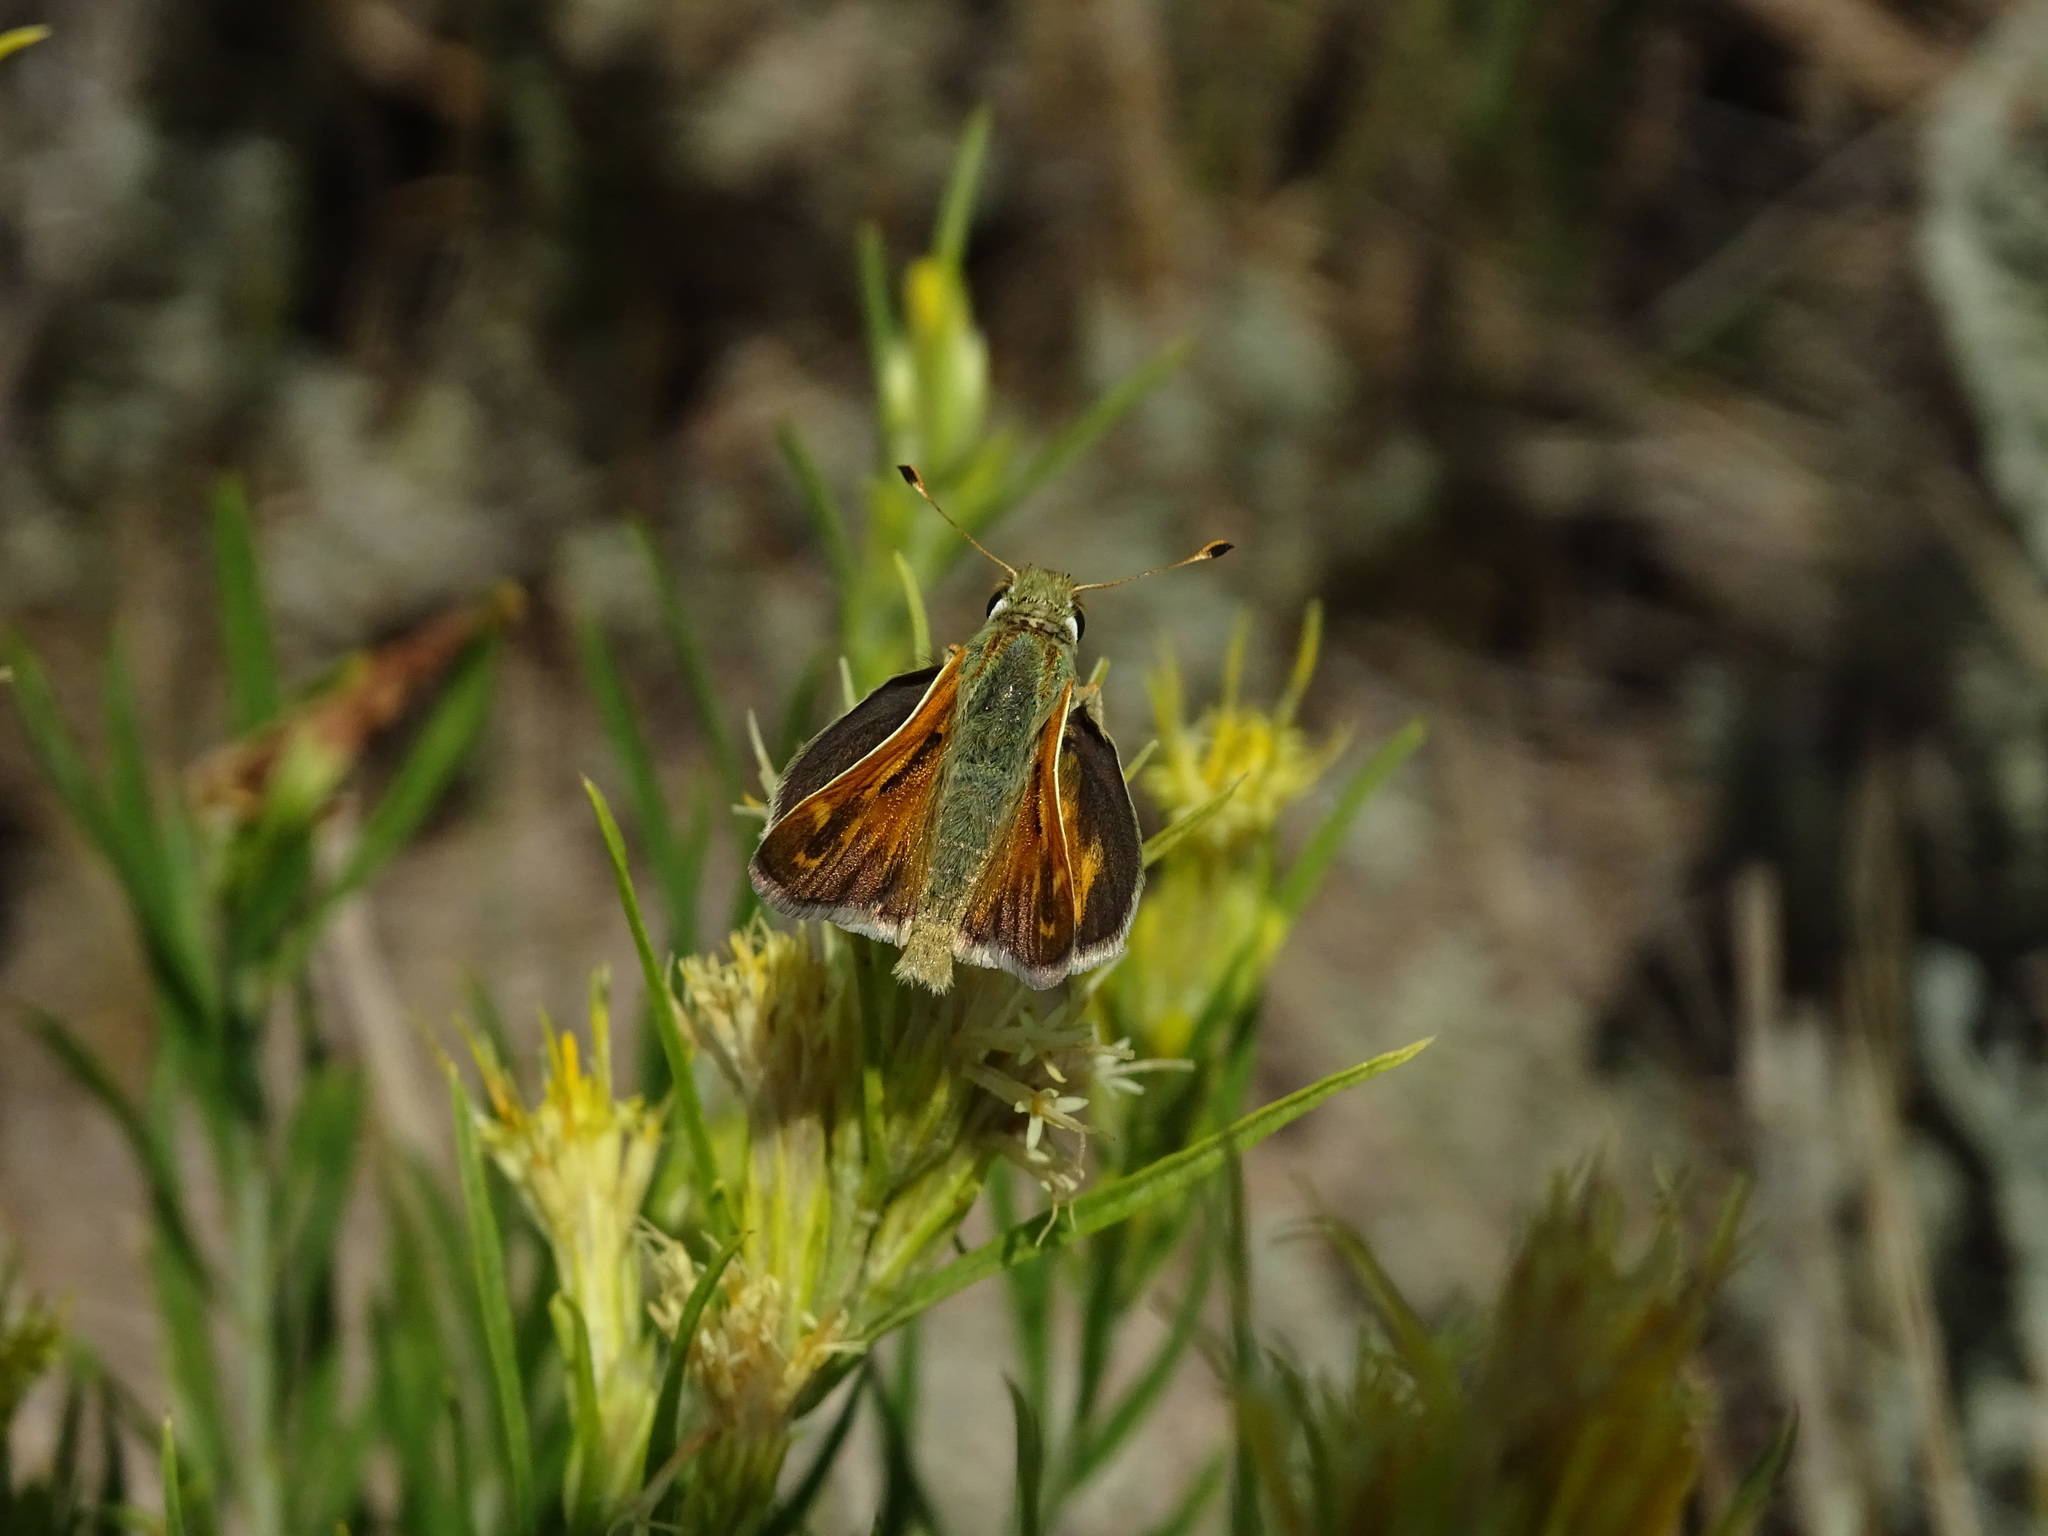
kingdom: Animalia
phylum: Arthropoda
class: Insecta
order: Lepidoptera
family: Hesperiidae
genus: Hesperia
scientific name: Hesperia comma
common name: Common branded skipper
